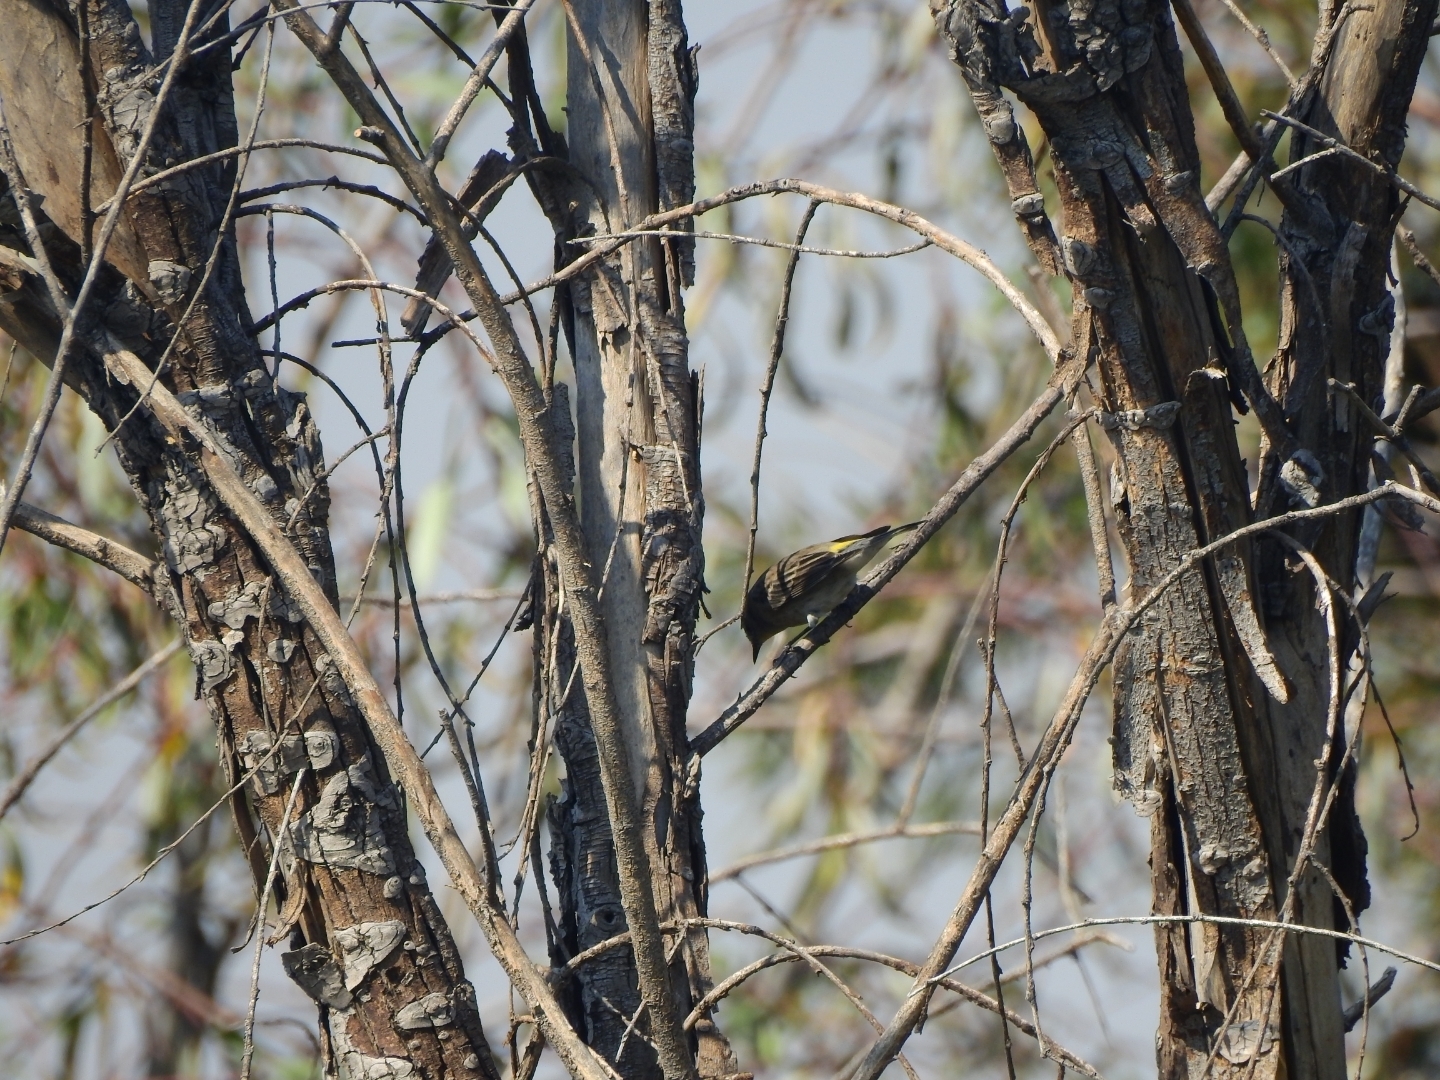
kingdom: Animalia
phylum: Chordata
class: Aves
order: Passeriformes
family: Parulidae
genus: Setophaga
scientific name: Setophaga coronata
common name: Myrtle warbler
